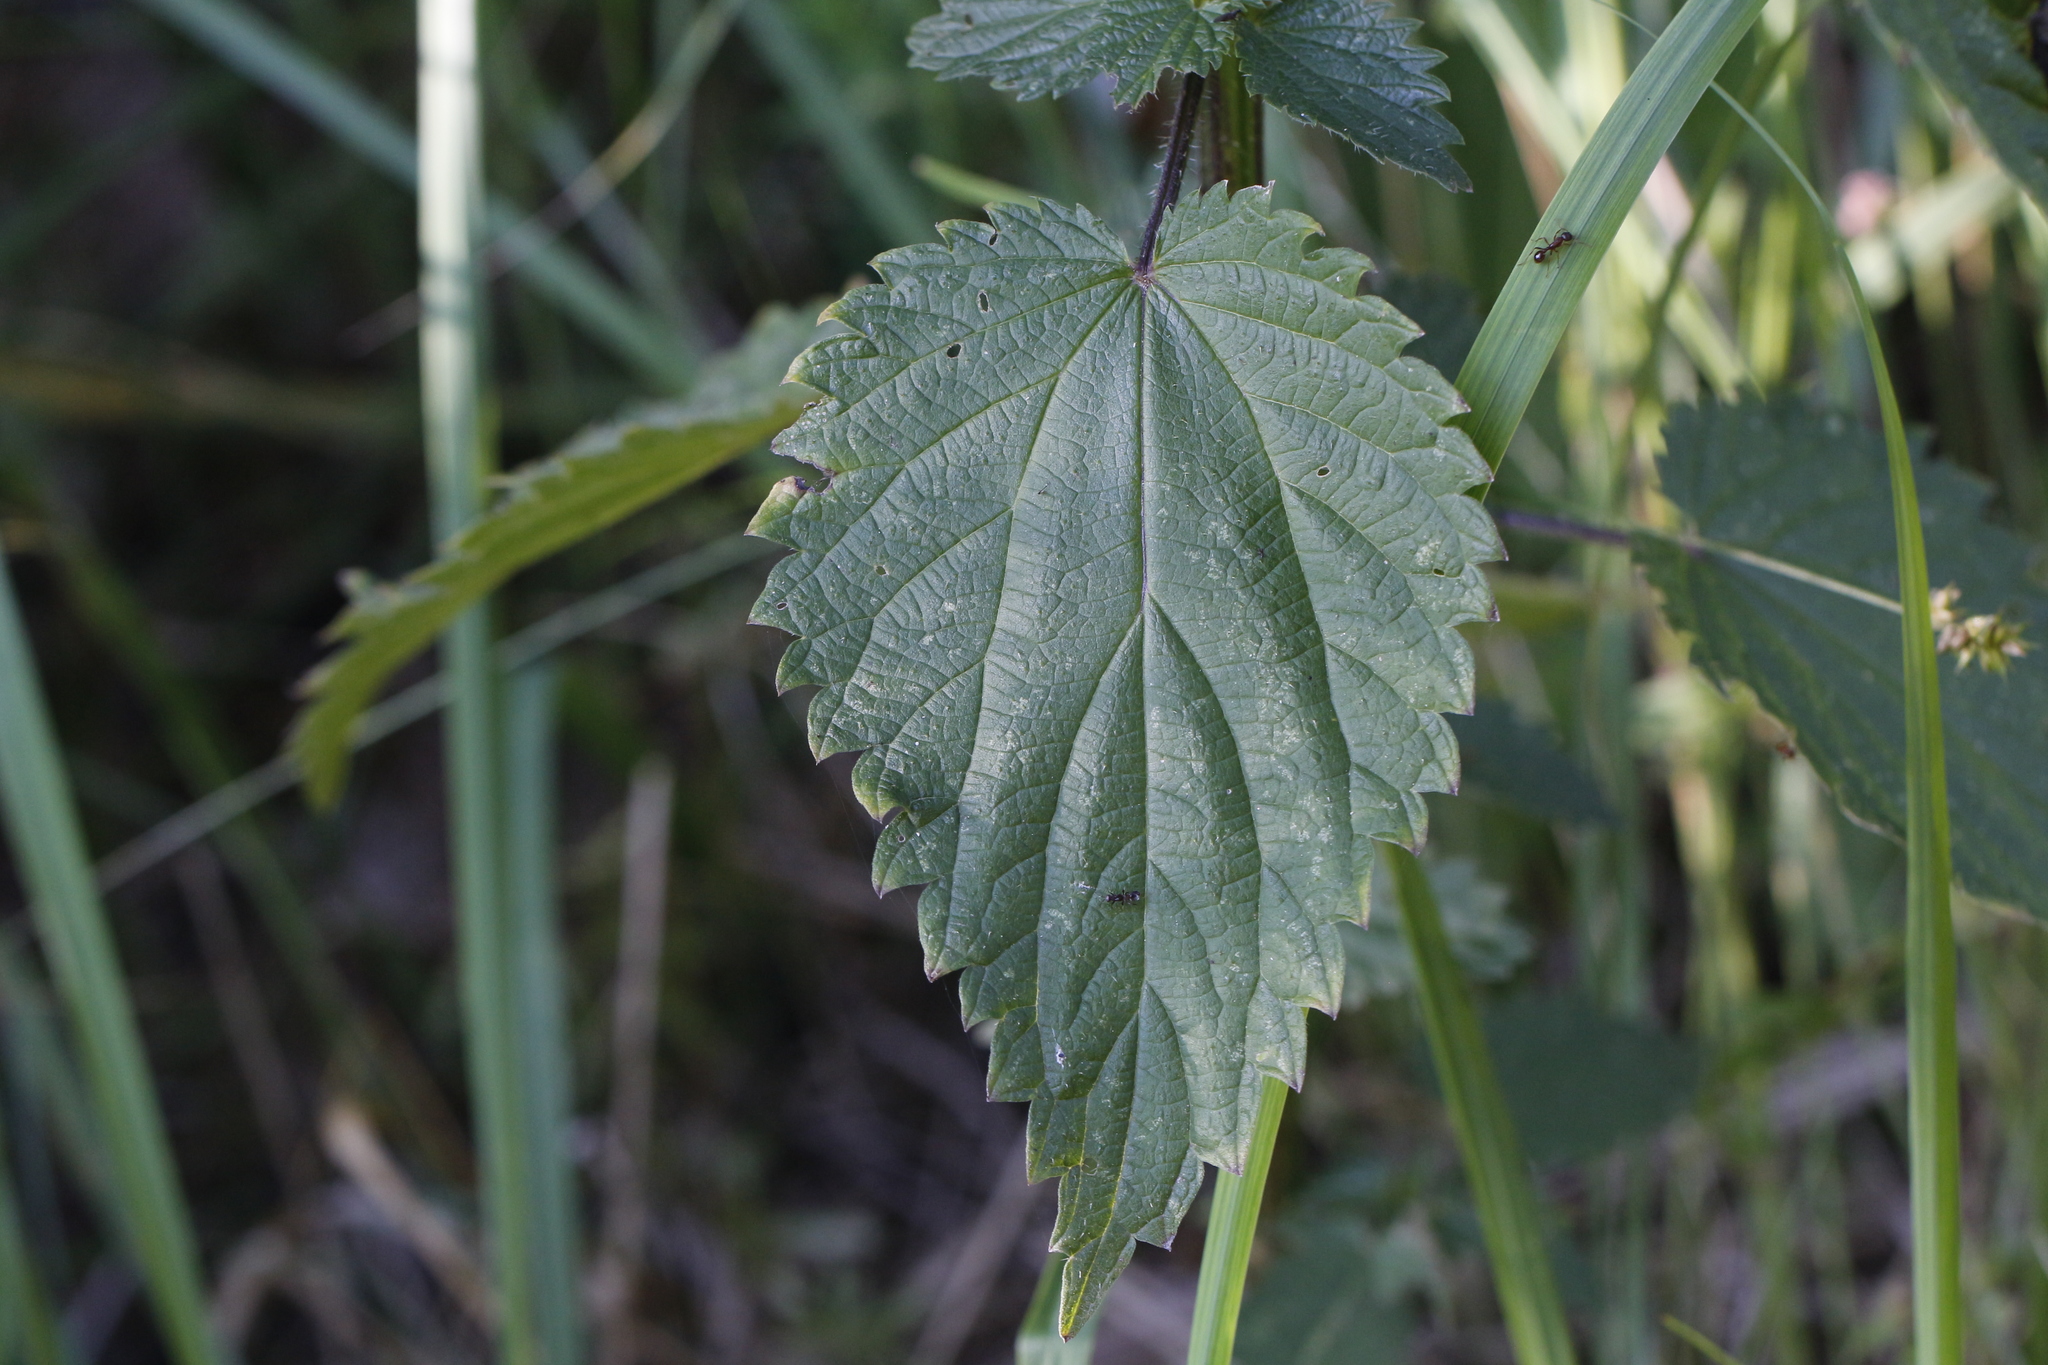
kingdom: Plantae
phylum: Tracheophyta
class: Magnoliopsida
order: Rosales
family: Urticaceae
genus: Urtica
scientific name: Urtica dioica
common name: Common nettle
